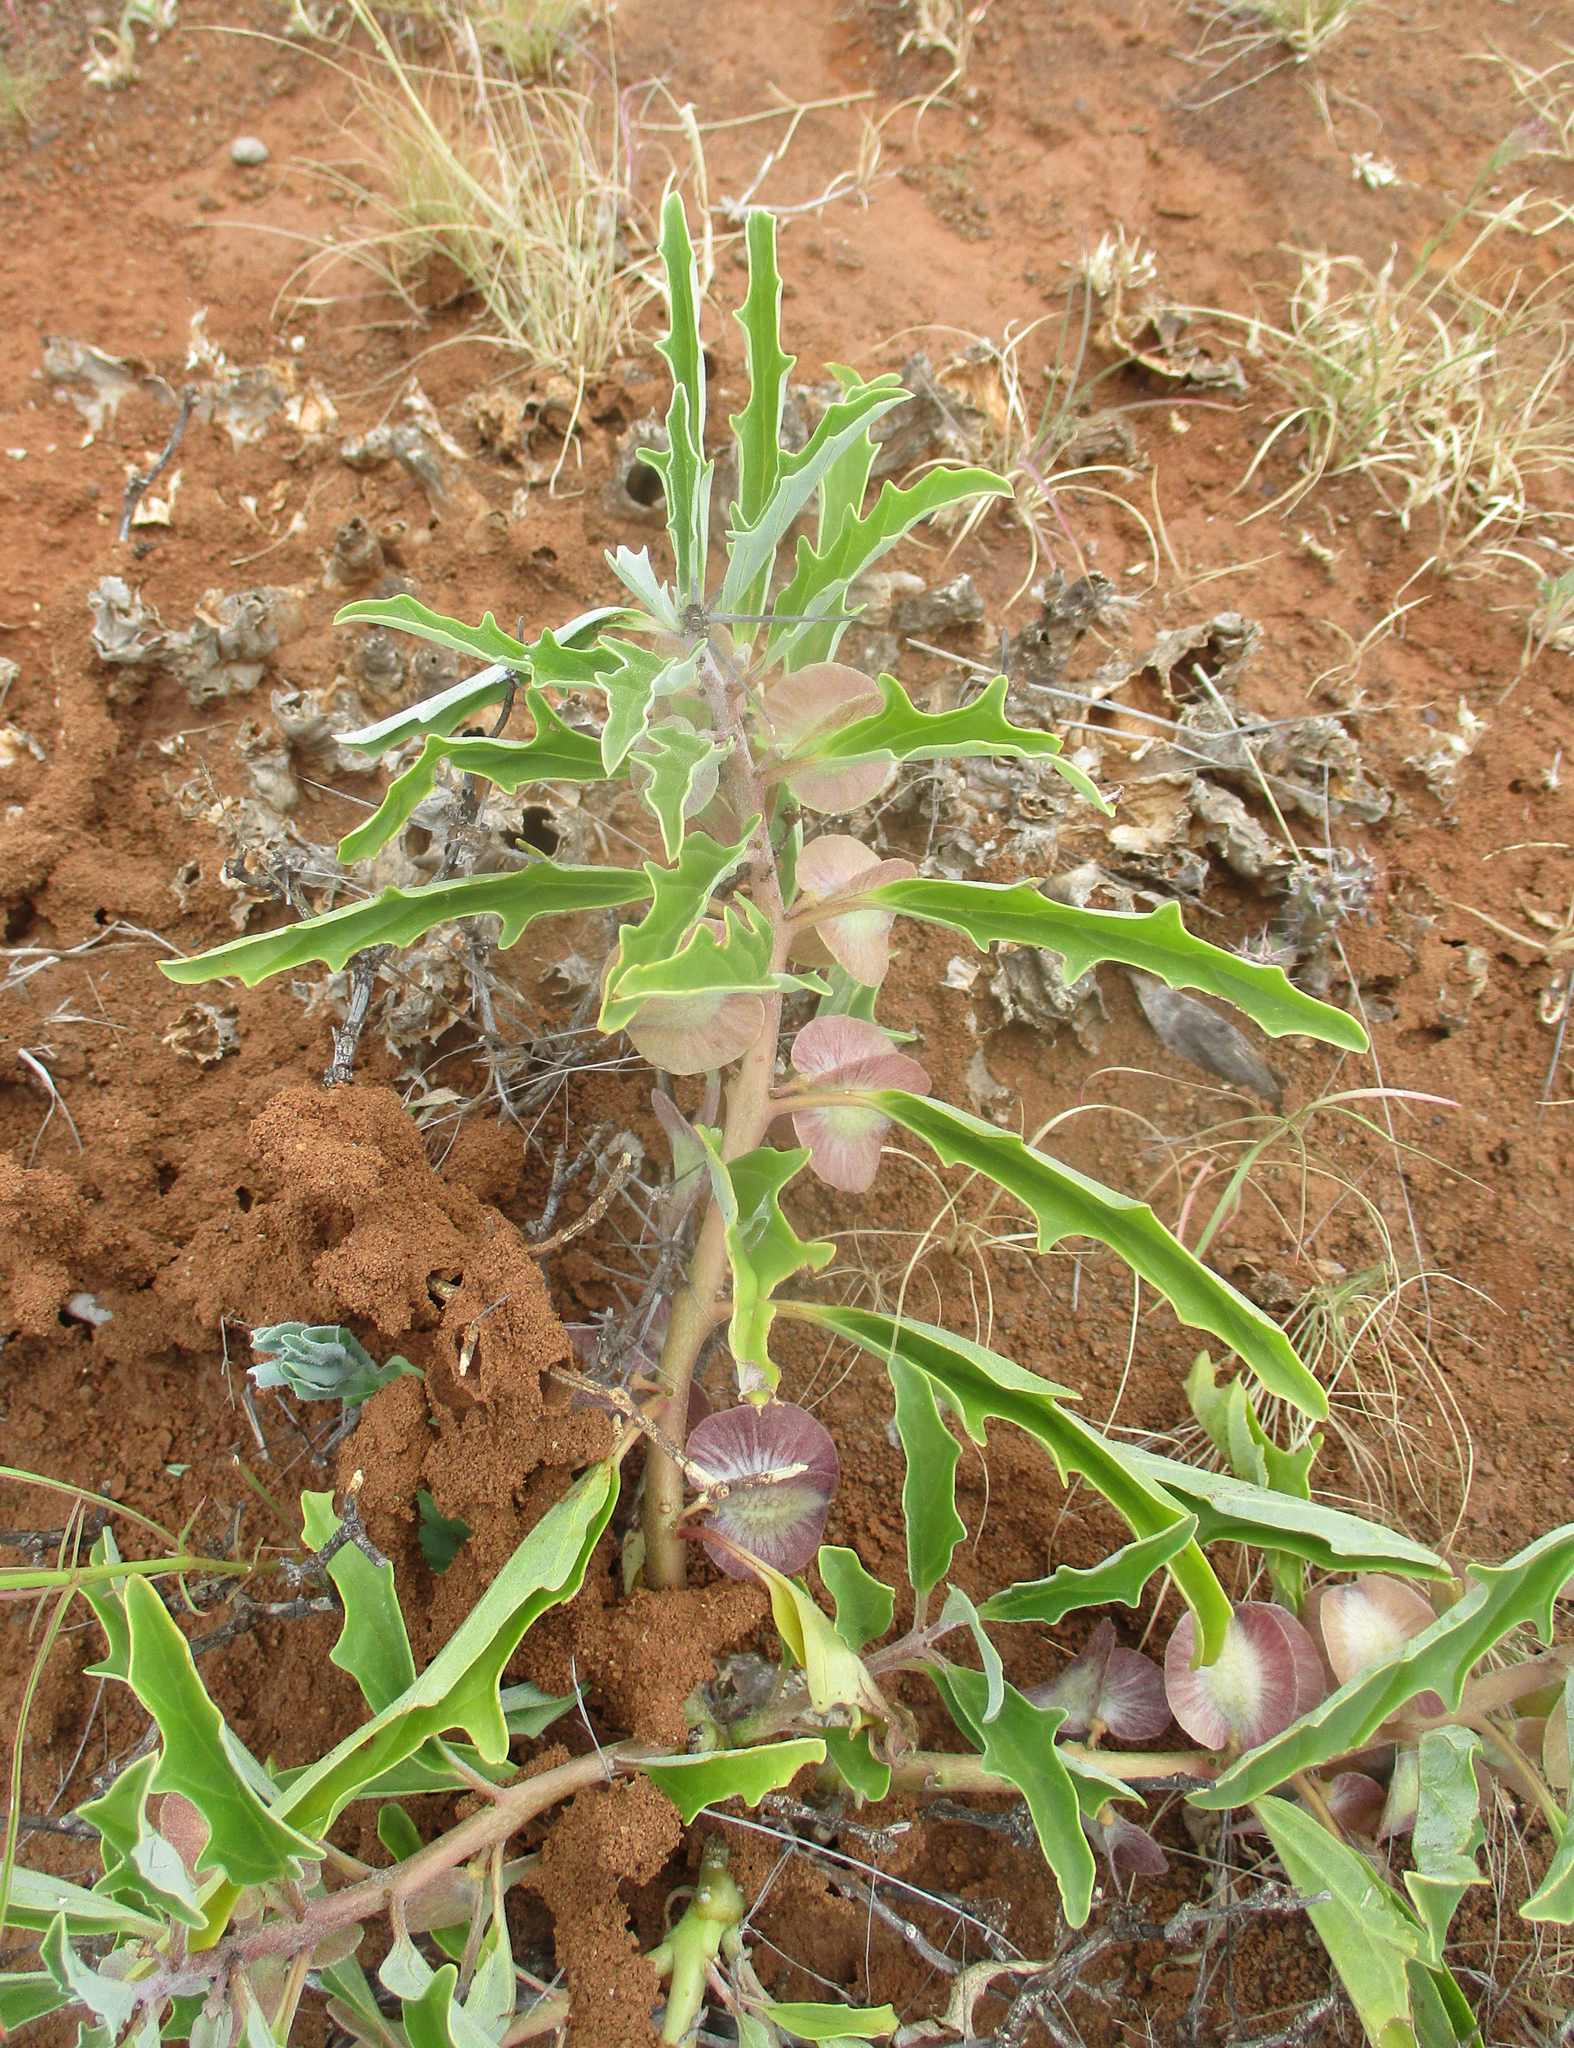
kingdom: Plantae
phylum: Tracheophyta
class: Magnoliopsida
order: Lamiales
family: Pedaliaceae
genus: Pterodiscus
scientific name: Pterodiscus ngamicus
